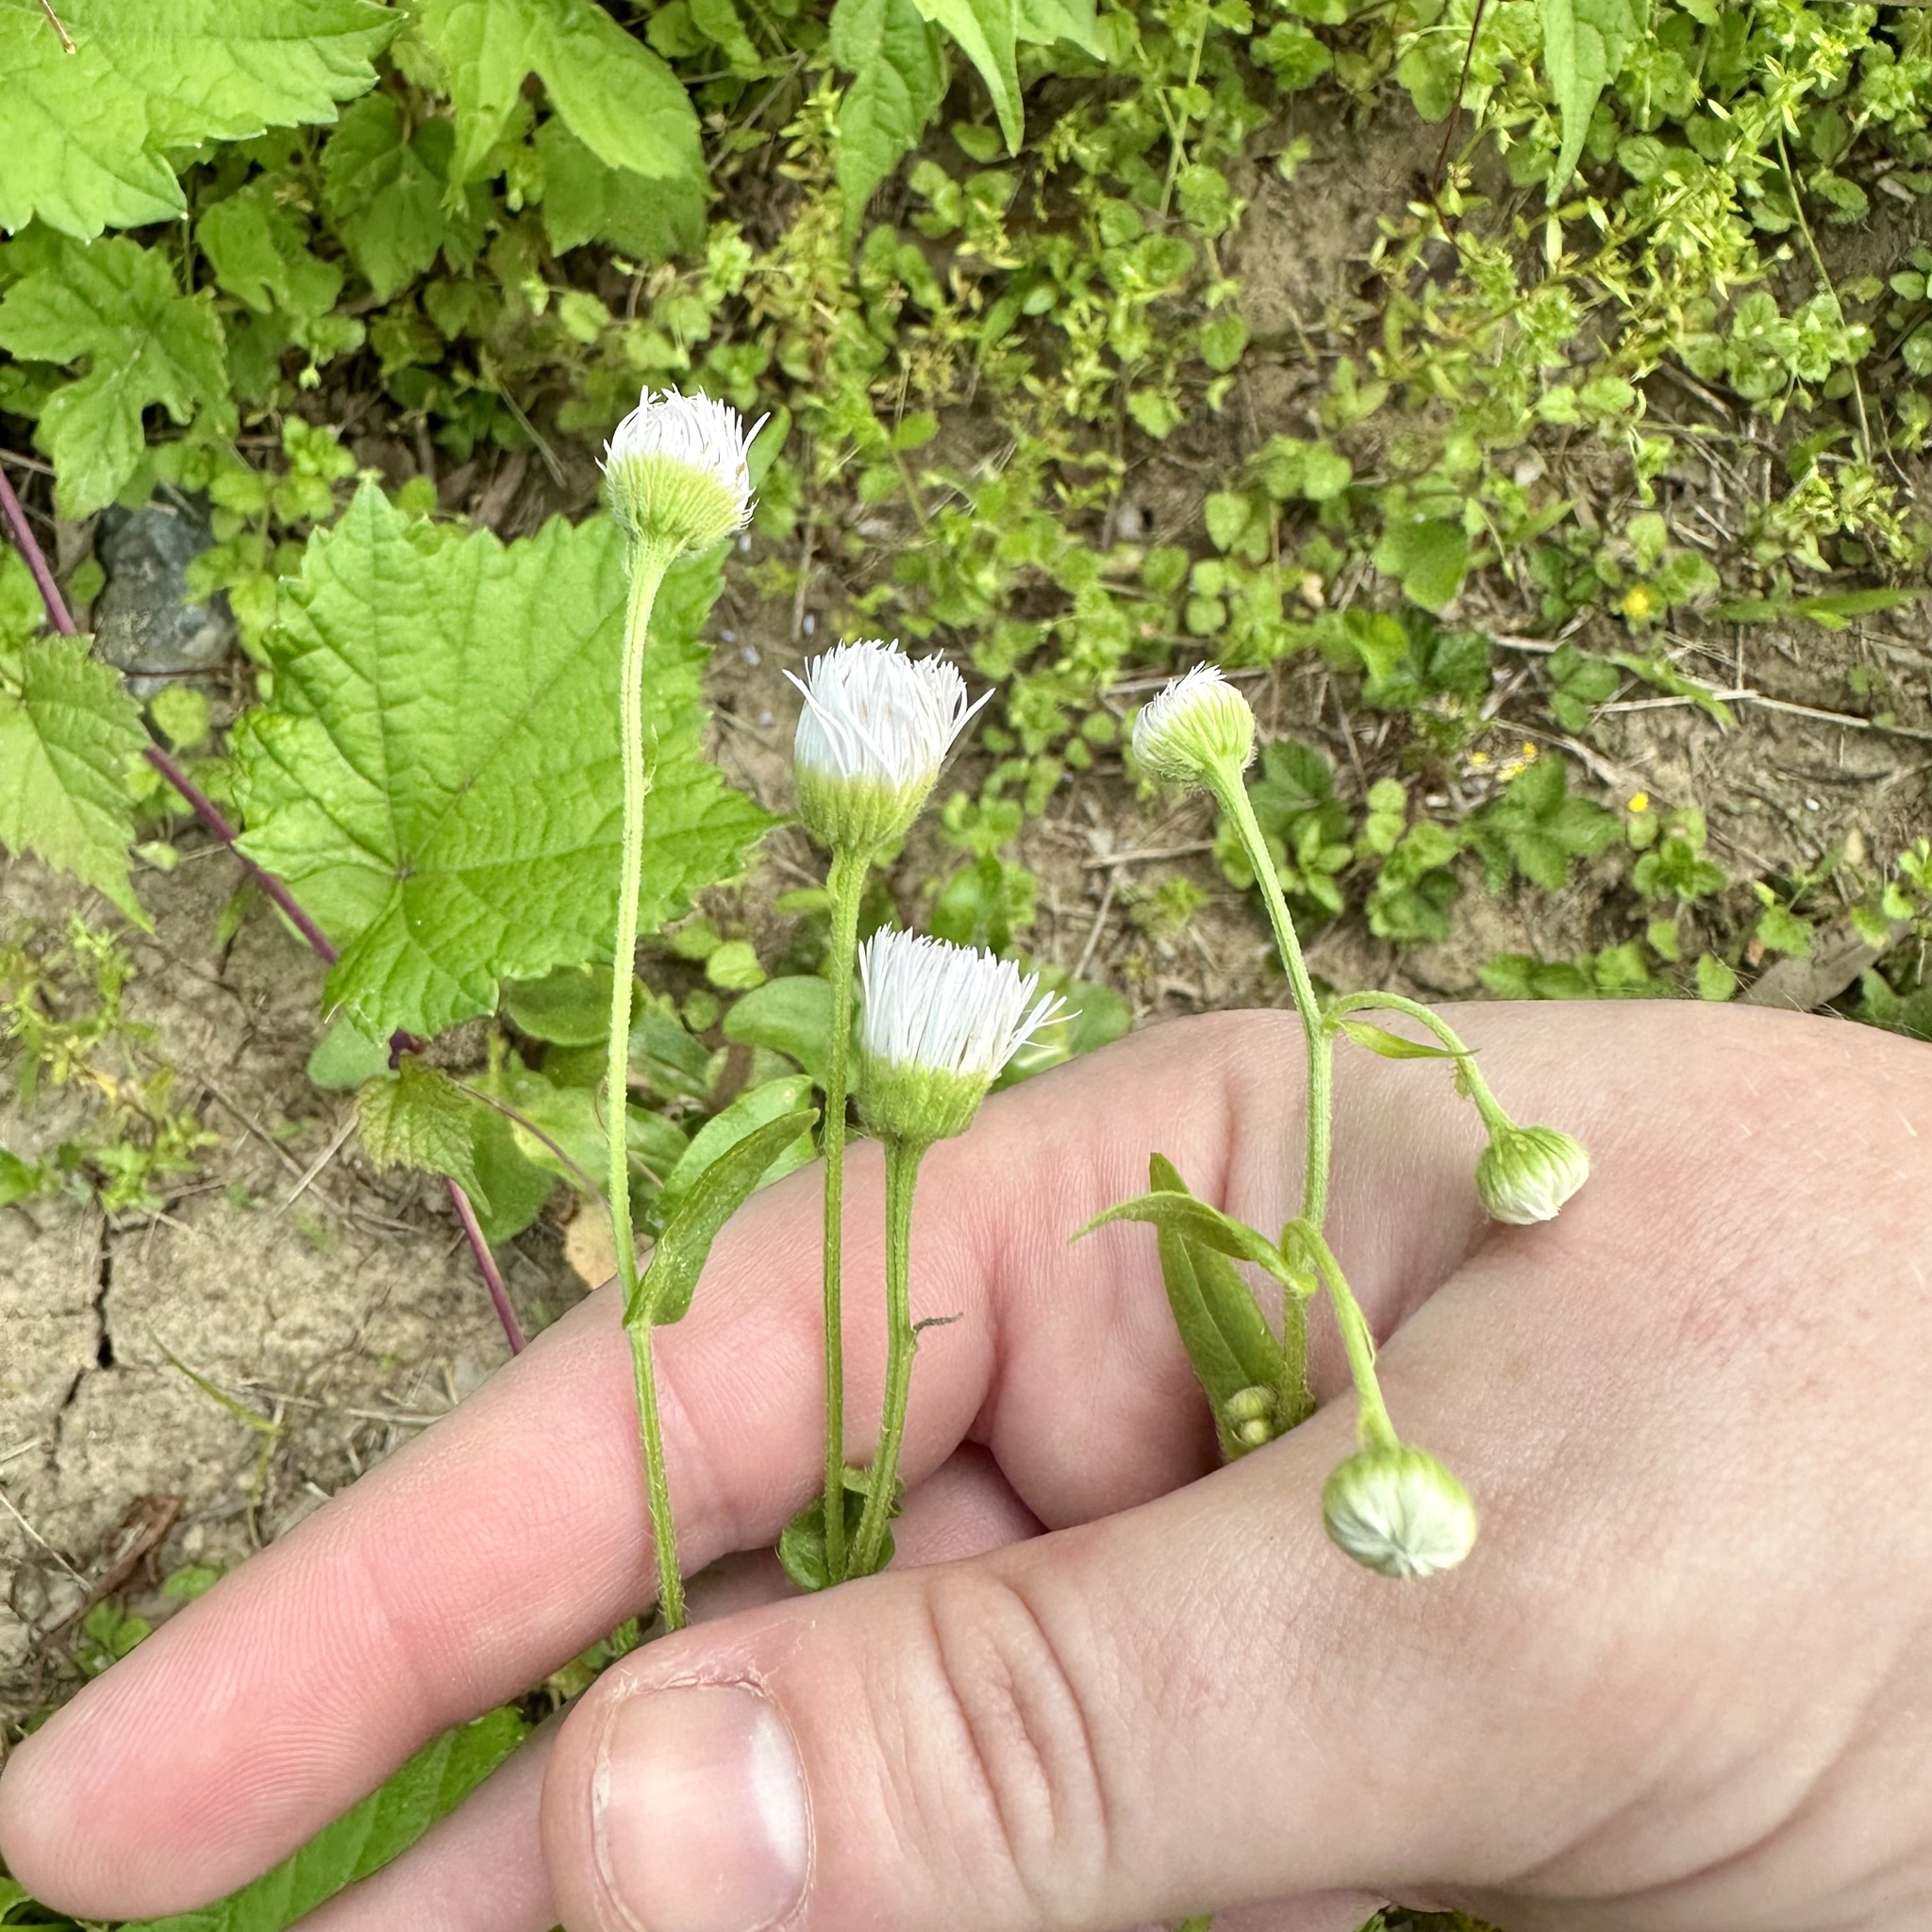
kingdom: Plantae
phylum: Tracheophyta
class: Magnoliopsida
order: Asterales
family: Asteraceae
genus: Erigeron
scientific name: Erigeron philadelphicus
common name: Robin's-plantain
